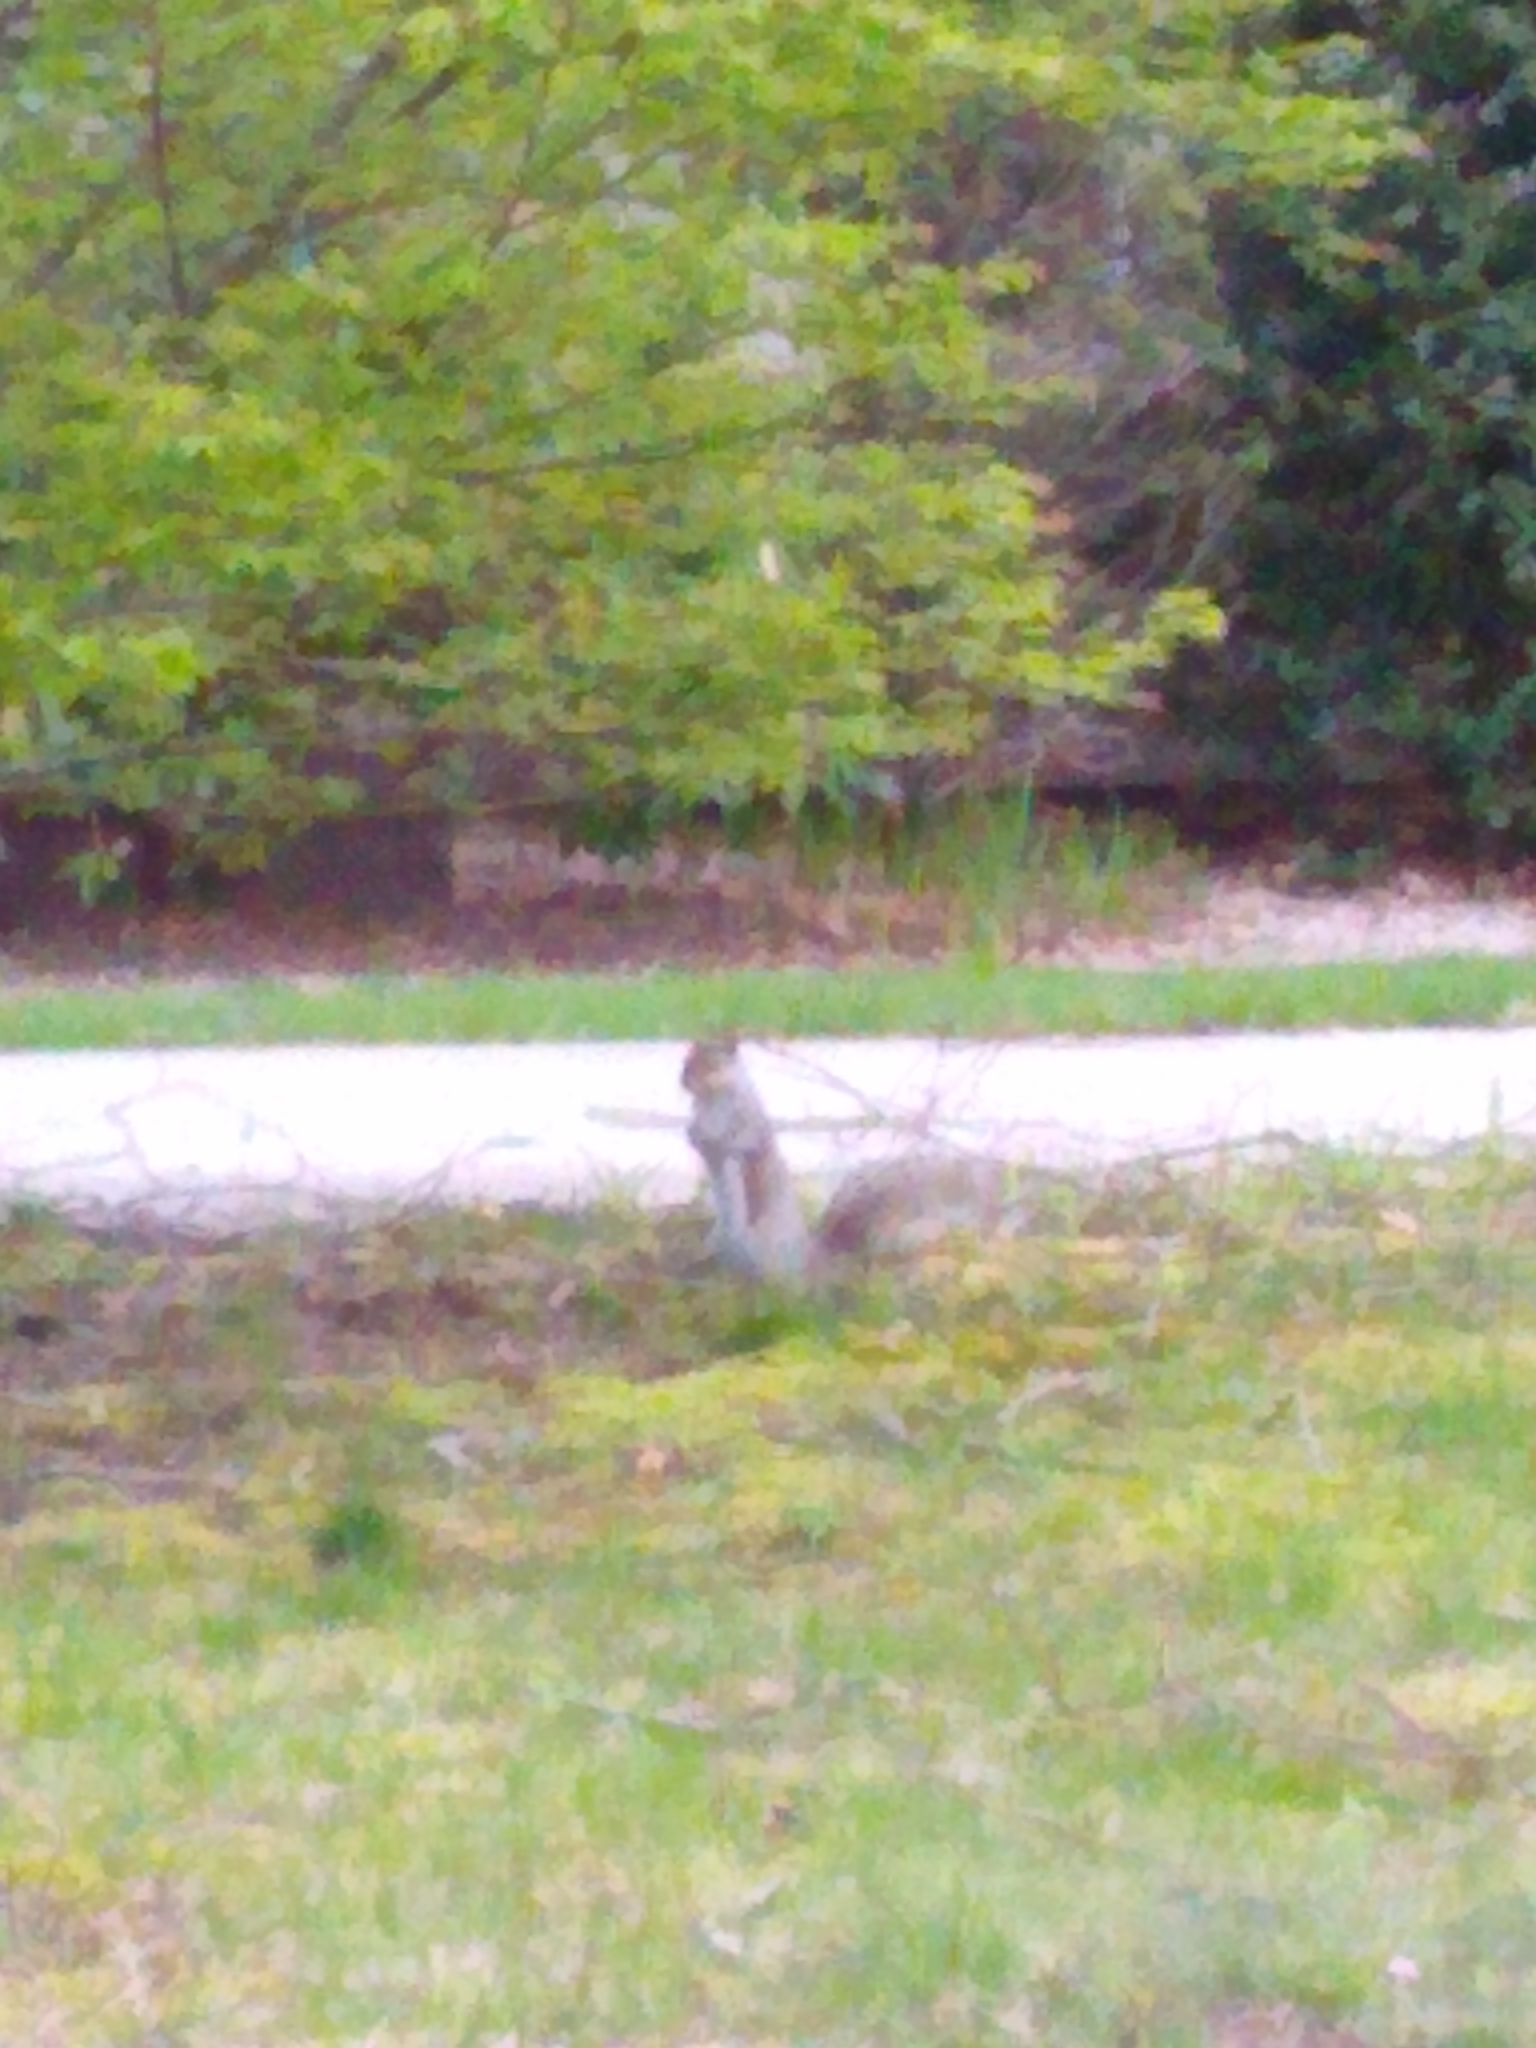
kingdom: Animalia
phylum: Chordata
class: Mammalia
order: Rodentia
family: Sciuridae
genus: Sciurus
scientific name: Sciurus carolinensis
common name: Eastern gray squirrel
